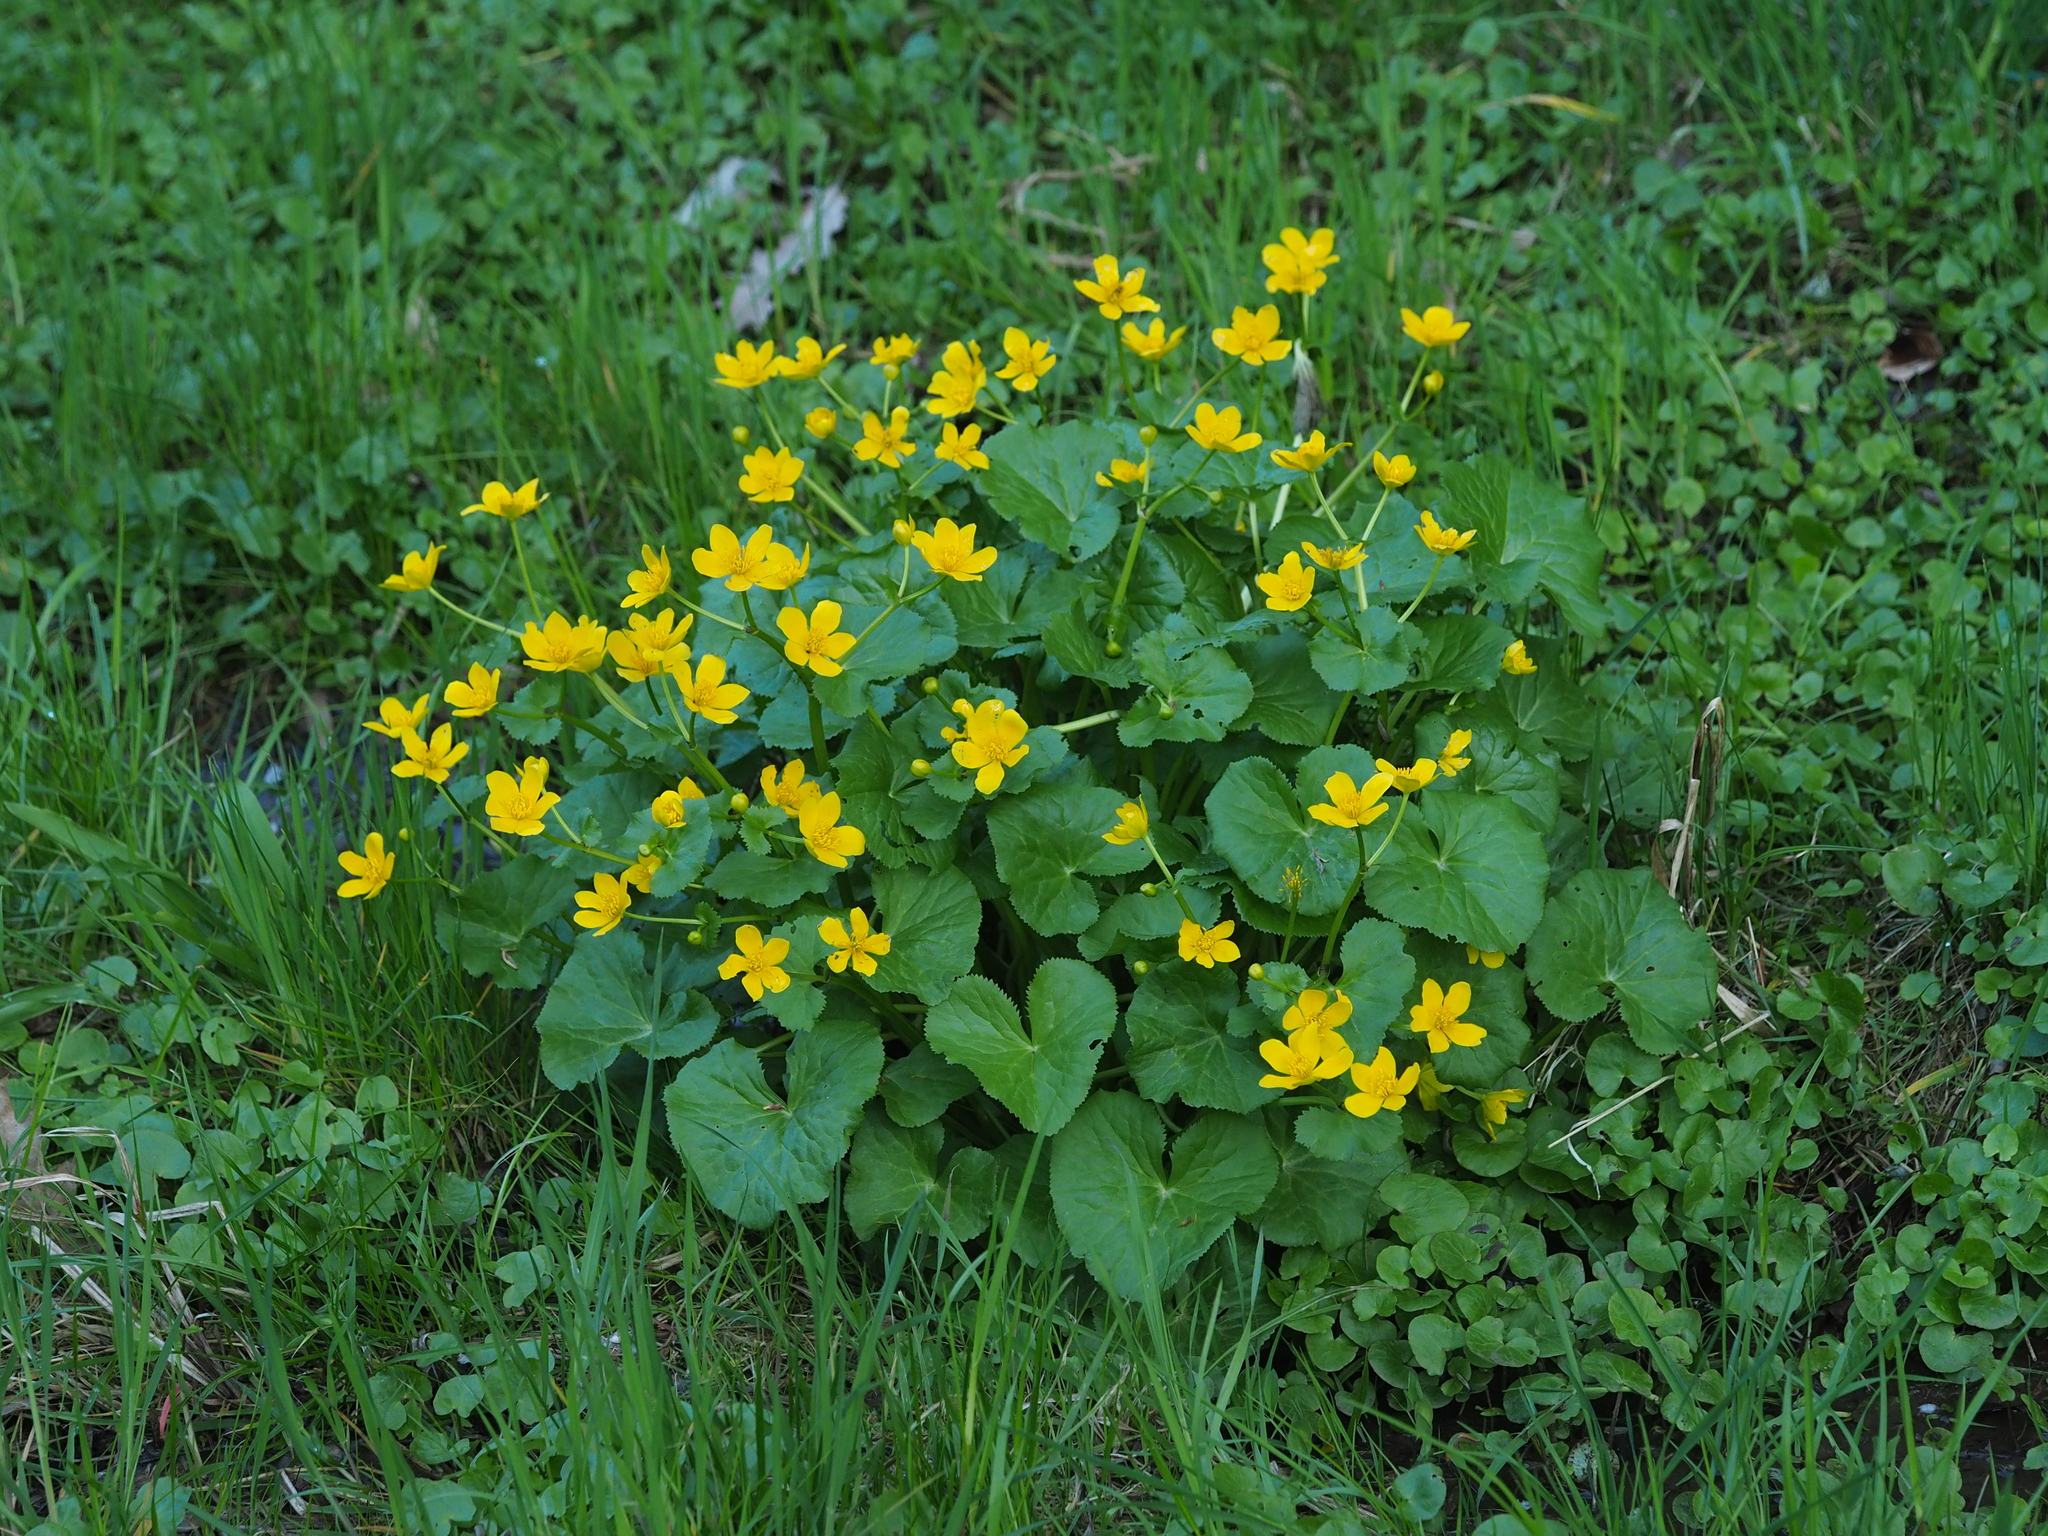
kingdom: Plantae
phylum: Tracheophyta
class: Magnoliopsida
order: Ranunculales
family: Ranunculaceae
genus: Caltha
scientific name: Caltha palustris
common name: Marsh marigold
